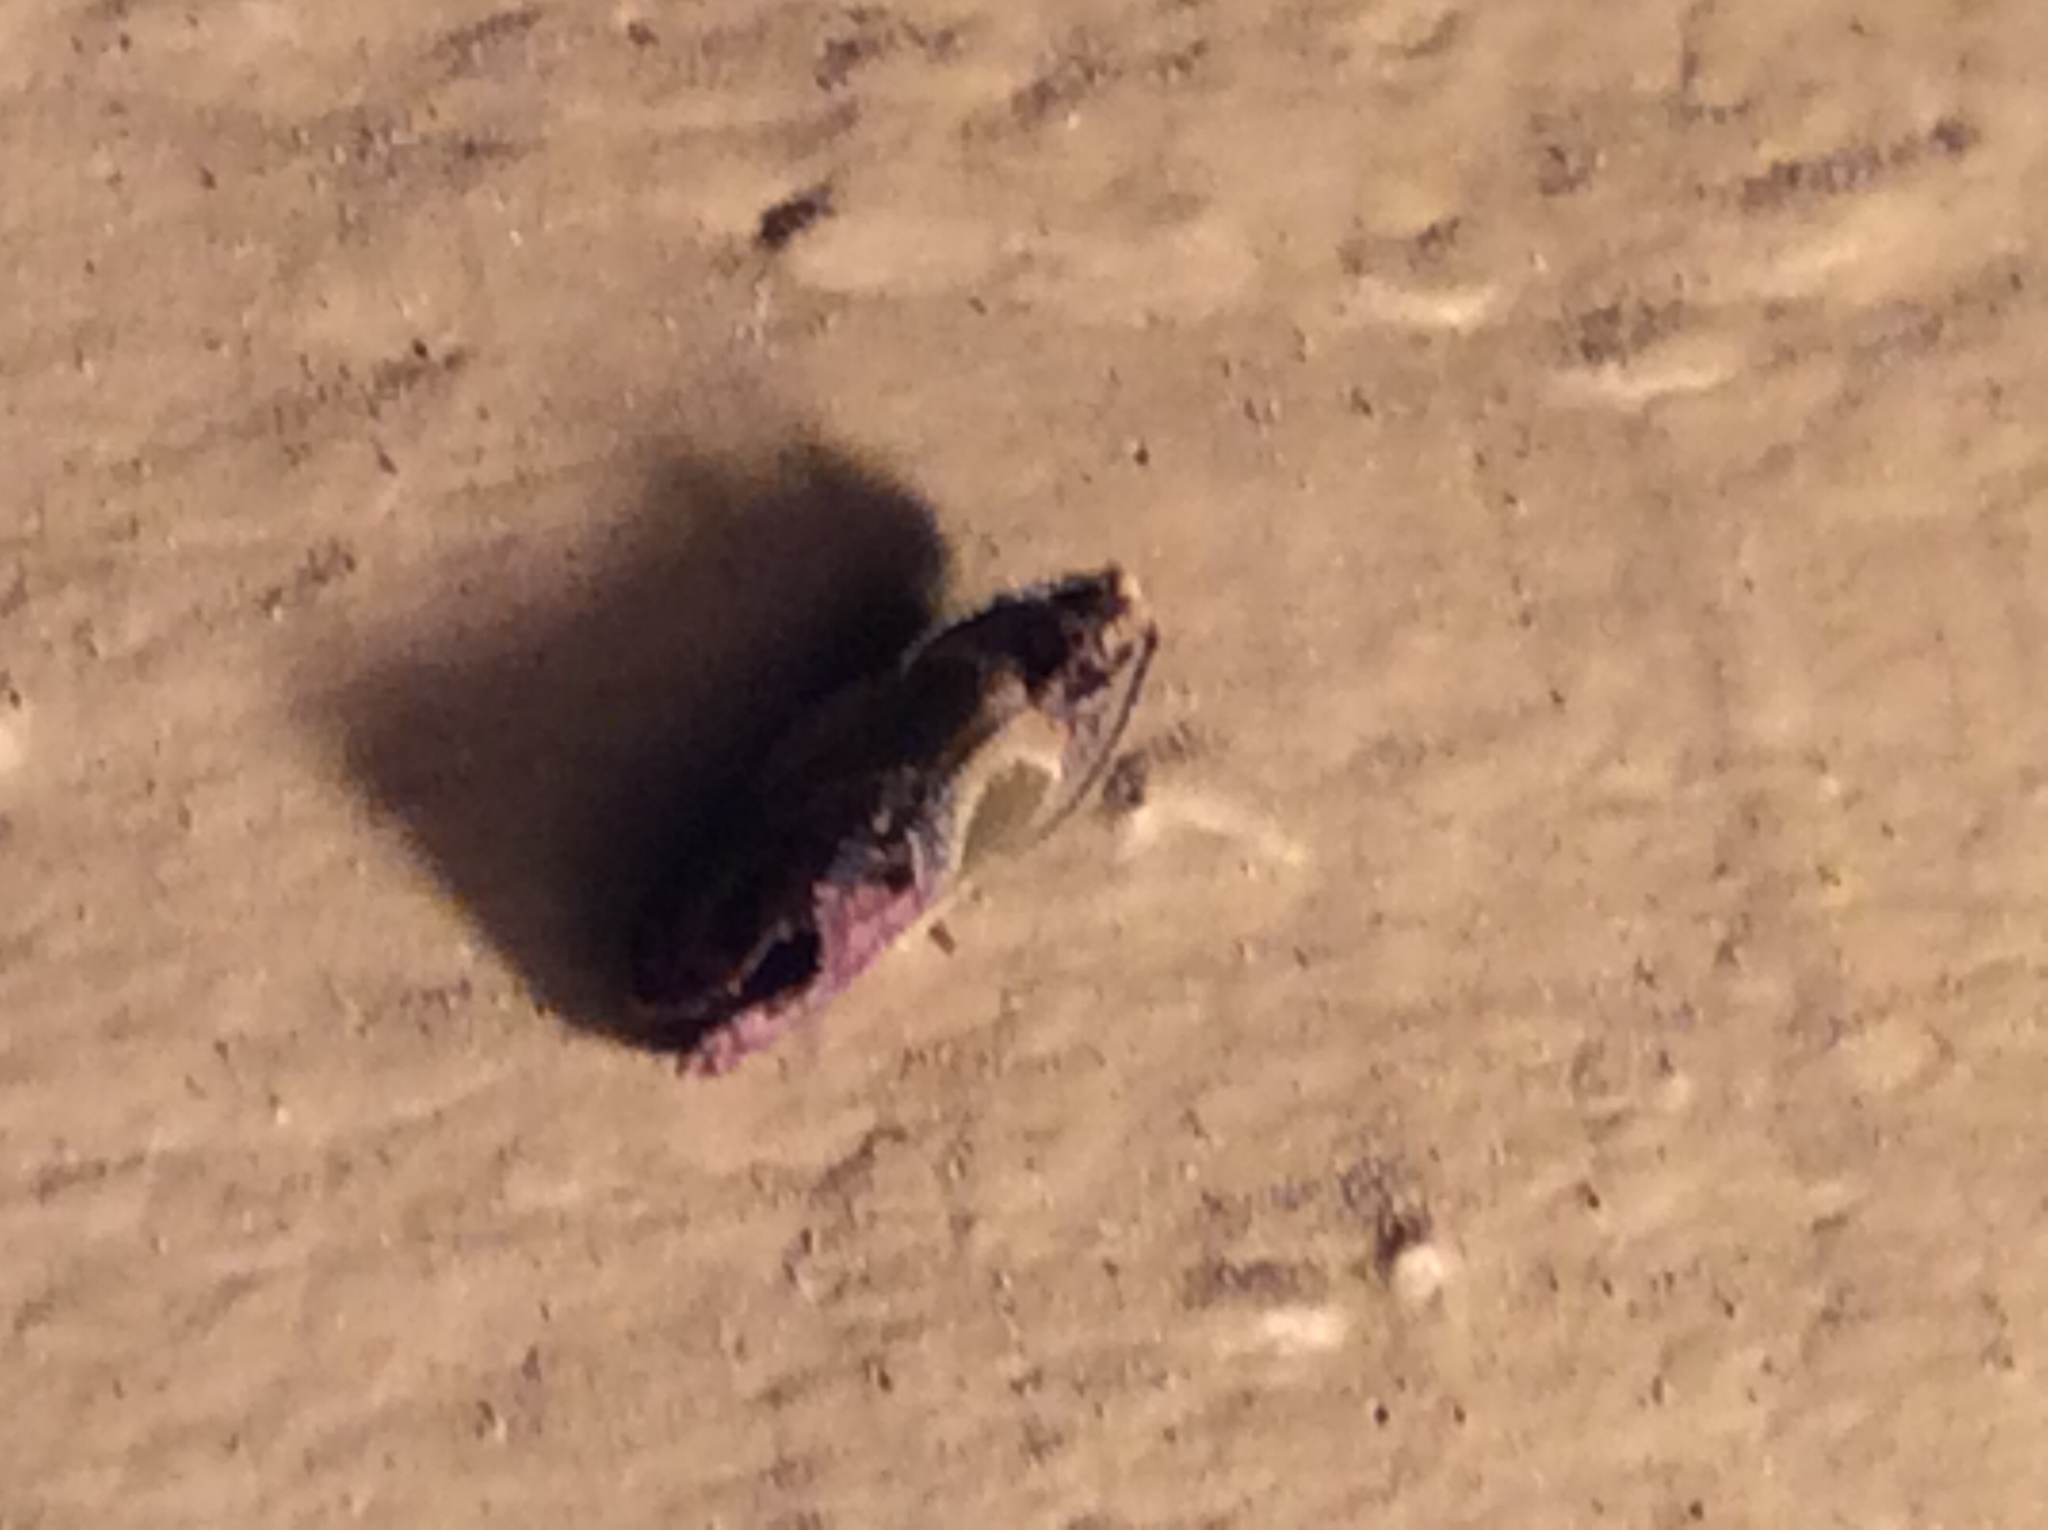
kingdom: Animalia
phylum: Arthropoda
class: Insecta
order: Lepidoptera
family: Tortricidae
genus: Eumarozia
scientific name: Eumarozia malachitana
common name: Sculptured moth
